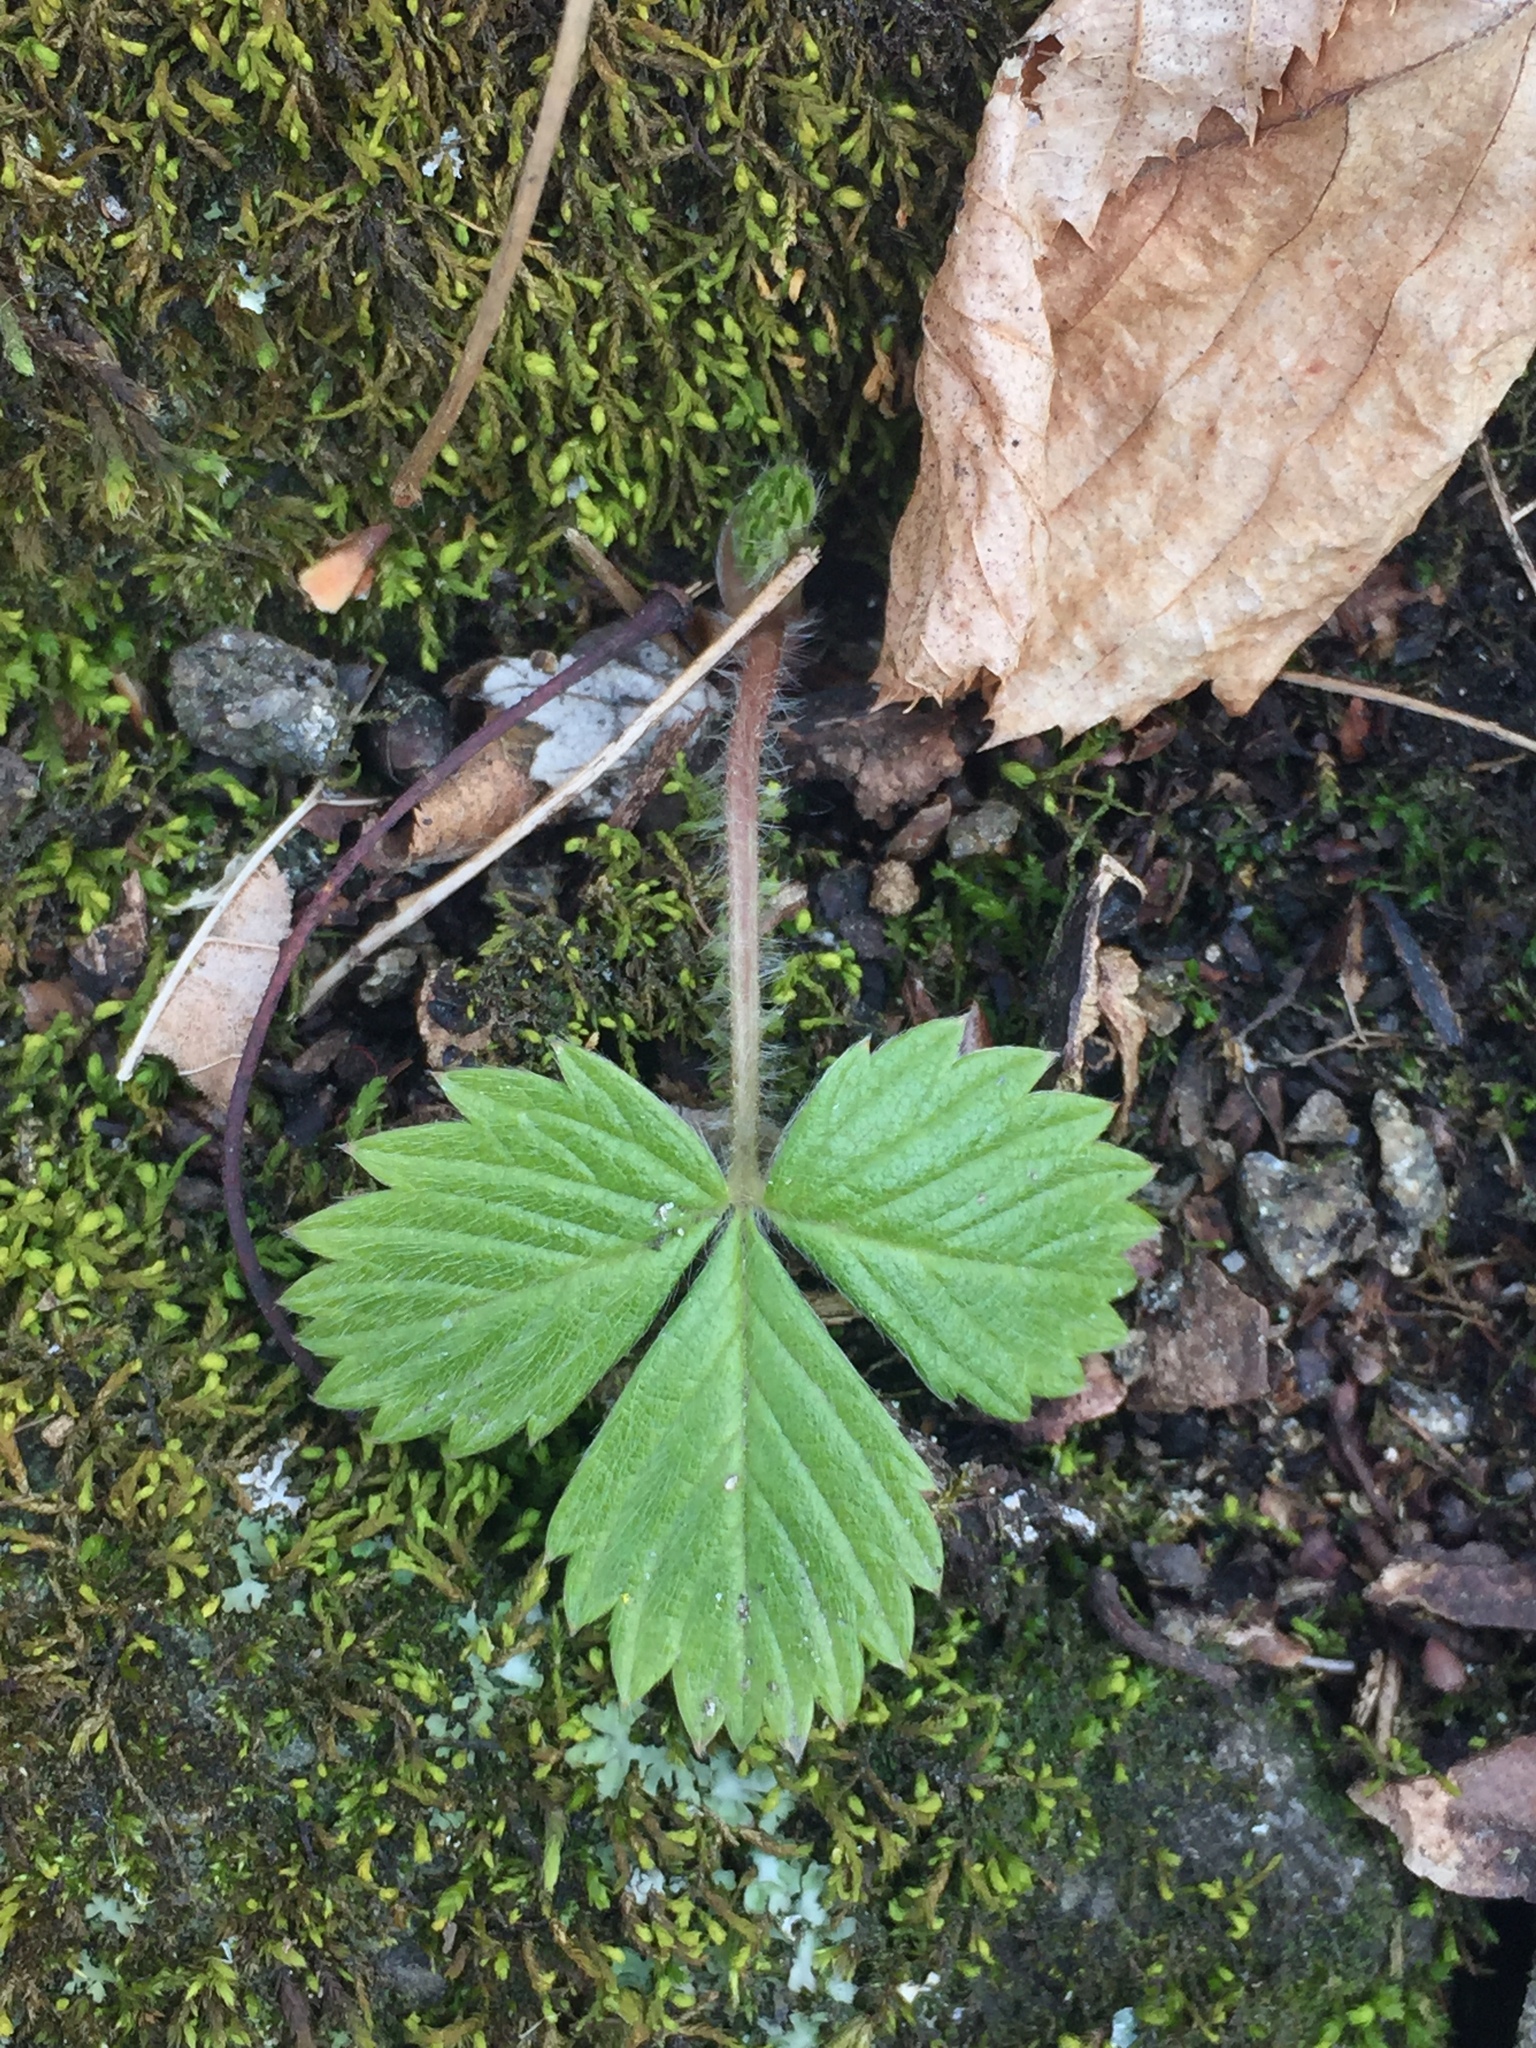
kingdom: Plantae
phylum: Tracheophyta
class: Magnoliopsida
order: Rosales
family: Rosaceae
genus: Fragaria
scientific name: Fragaria virginiana
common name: Thickleaved wild strawberry
